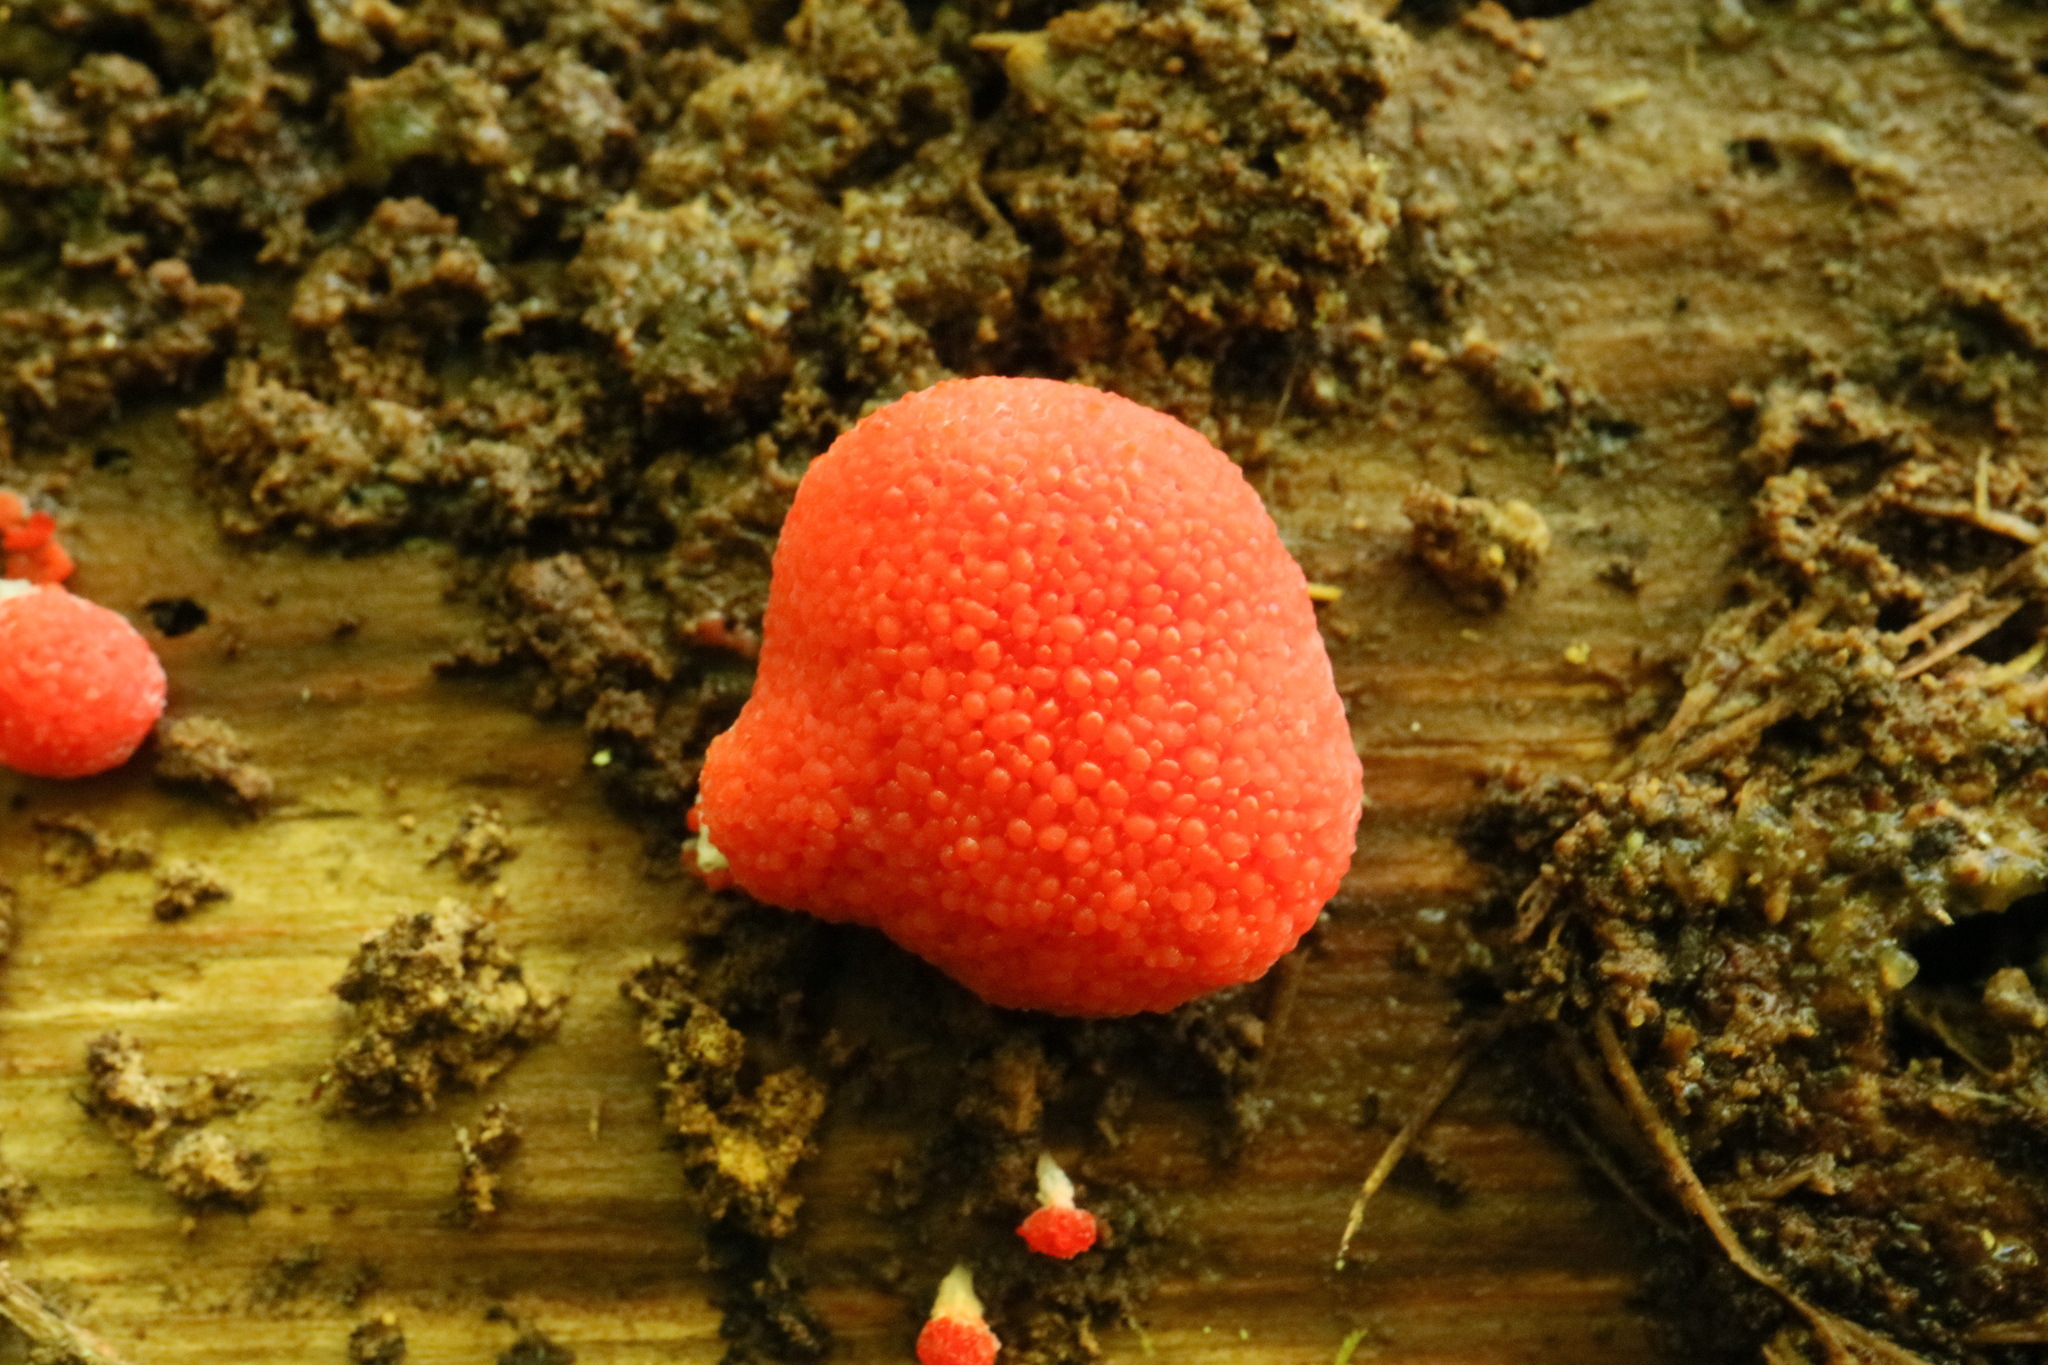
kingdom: Protozoa
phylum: Mycetozoa
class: Myxomycetes
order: Cribrariales
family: Tubiferaceae
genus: Tubifera
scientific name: Tubifera ferruginosa
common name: Red raspberry slime mold
